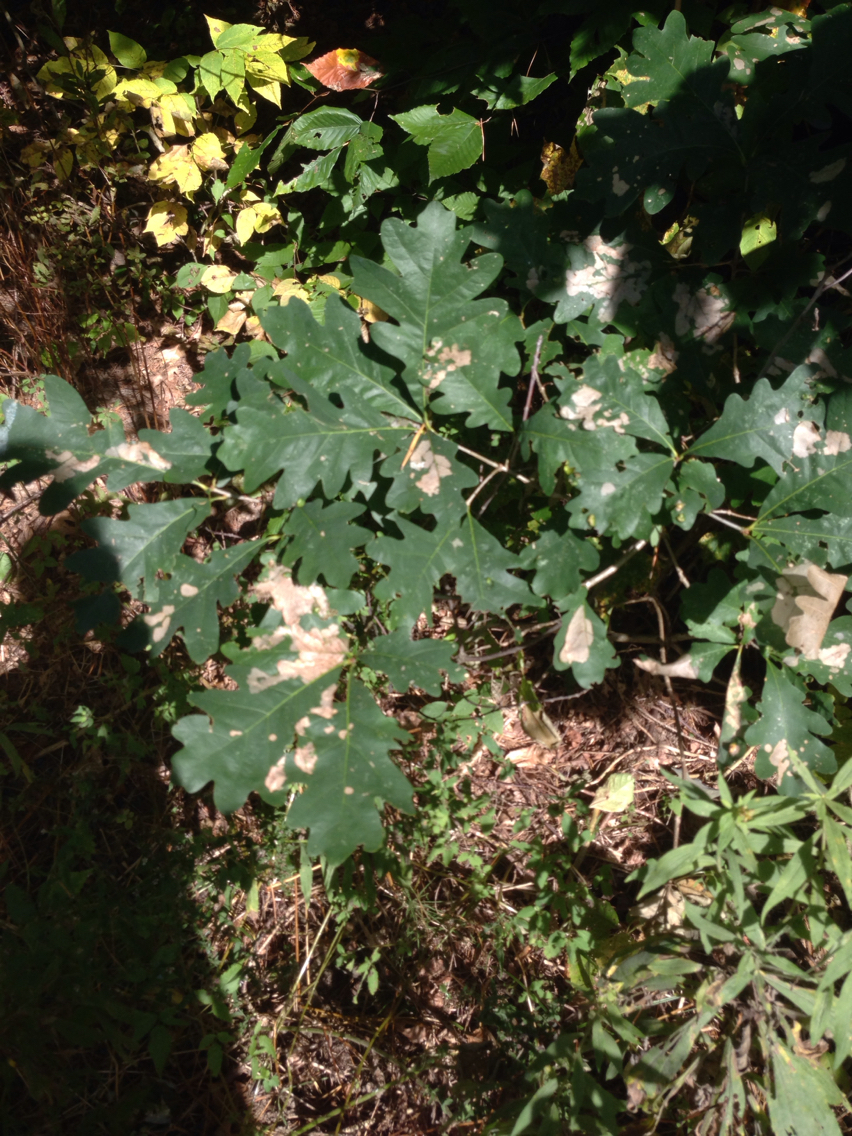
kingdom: Plantae
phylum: Tracheophyta
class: Magnoliopsida
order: Fagales
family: Fagaceae
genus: Quercus
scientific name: Quercus alba
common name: White oak
